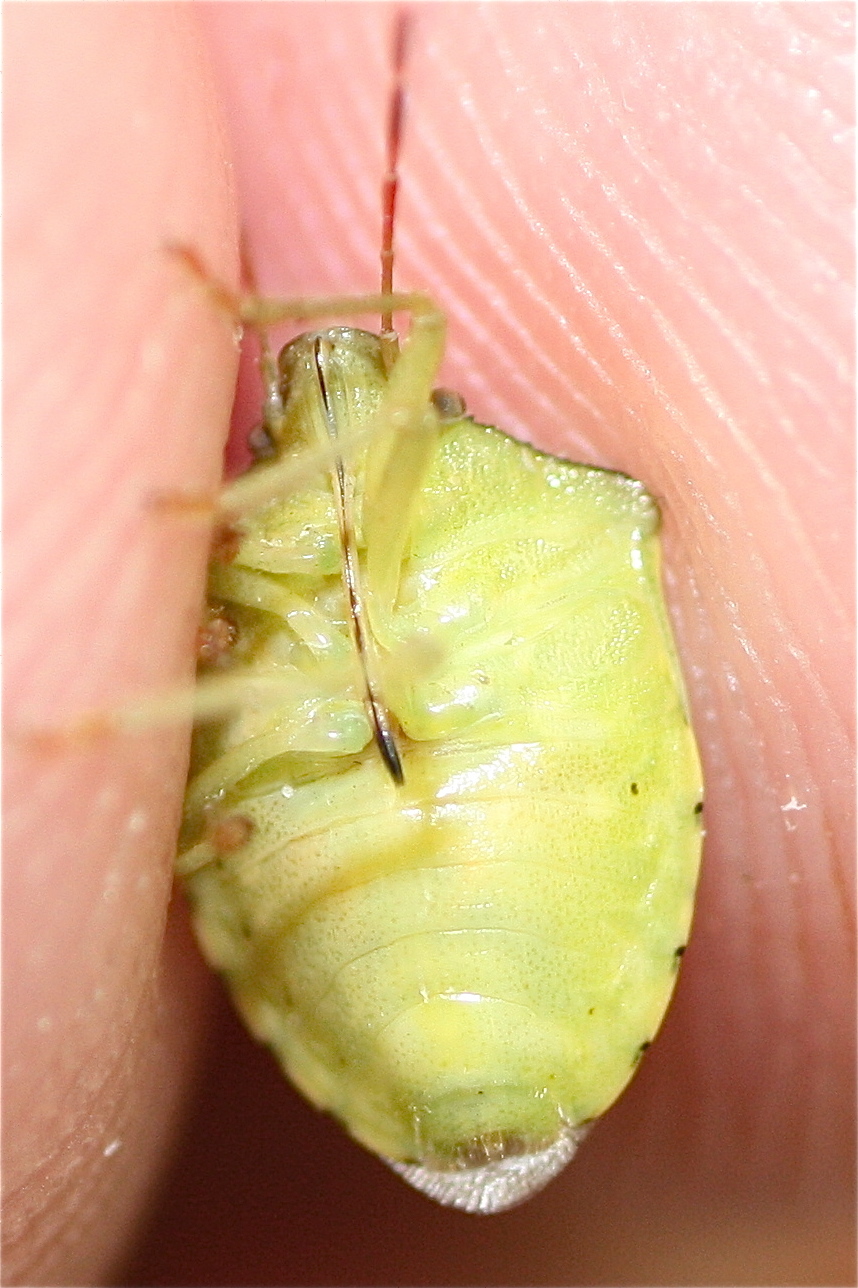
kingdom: Animalia
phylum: Arthropoda
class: Insecta
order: Hemiptera
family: Pentatomidae
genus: Thyanta
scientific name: Thyanta calceata
